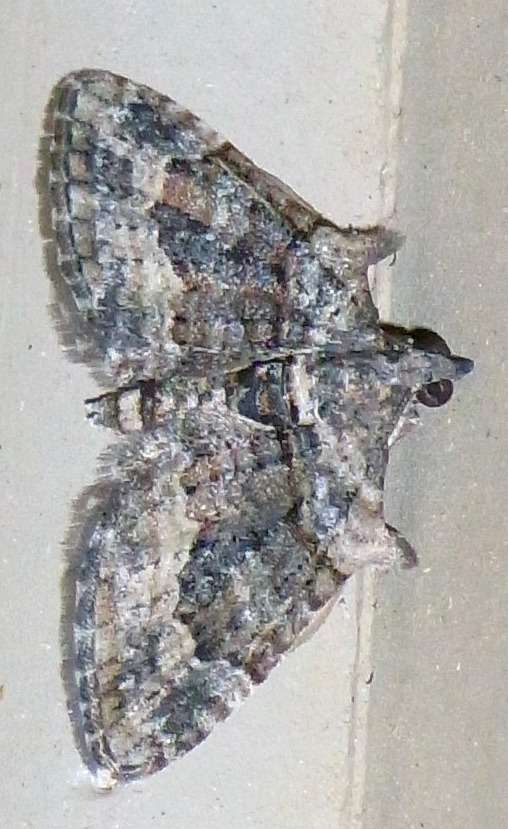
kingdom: Animalia
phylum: Arthropoda
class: Insecta
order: Lepidoptera
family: Geometridae
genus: Phrissogonus
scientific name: Phrissogonus laticostata
